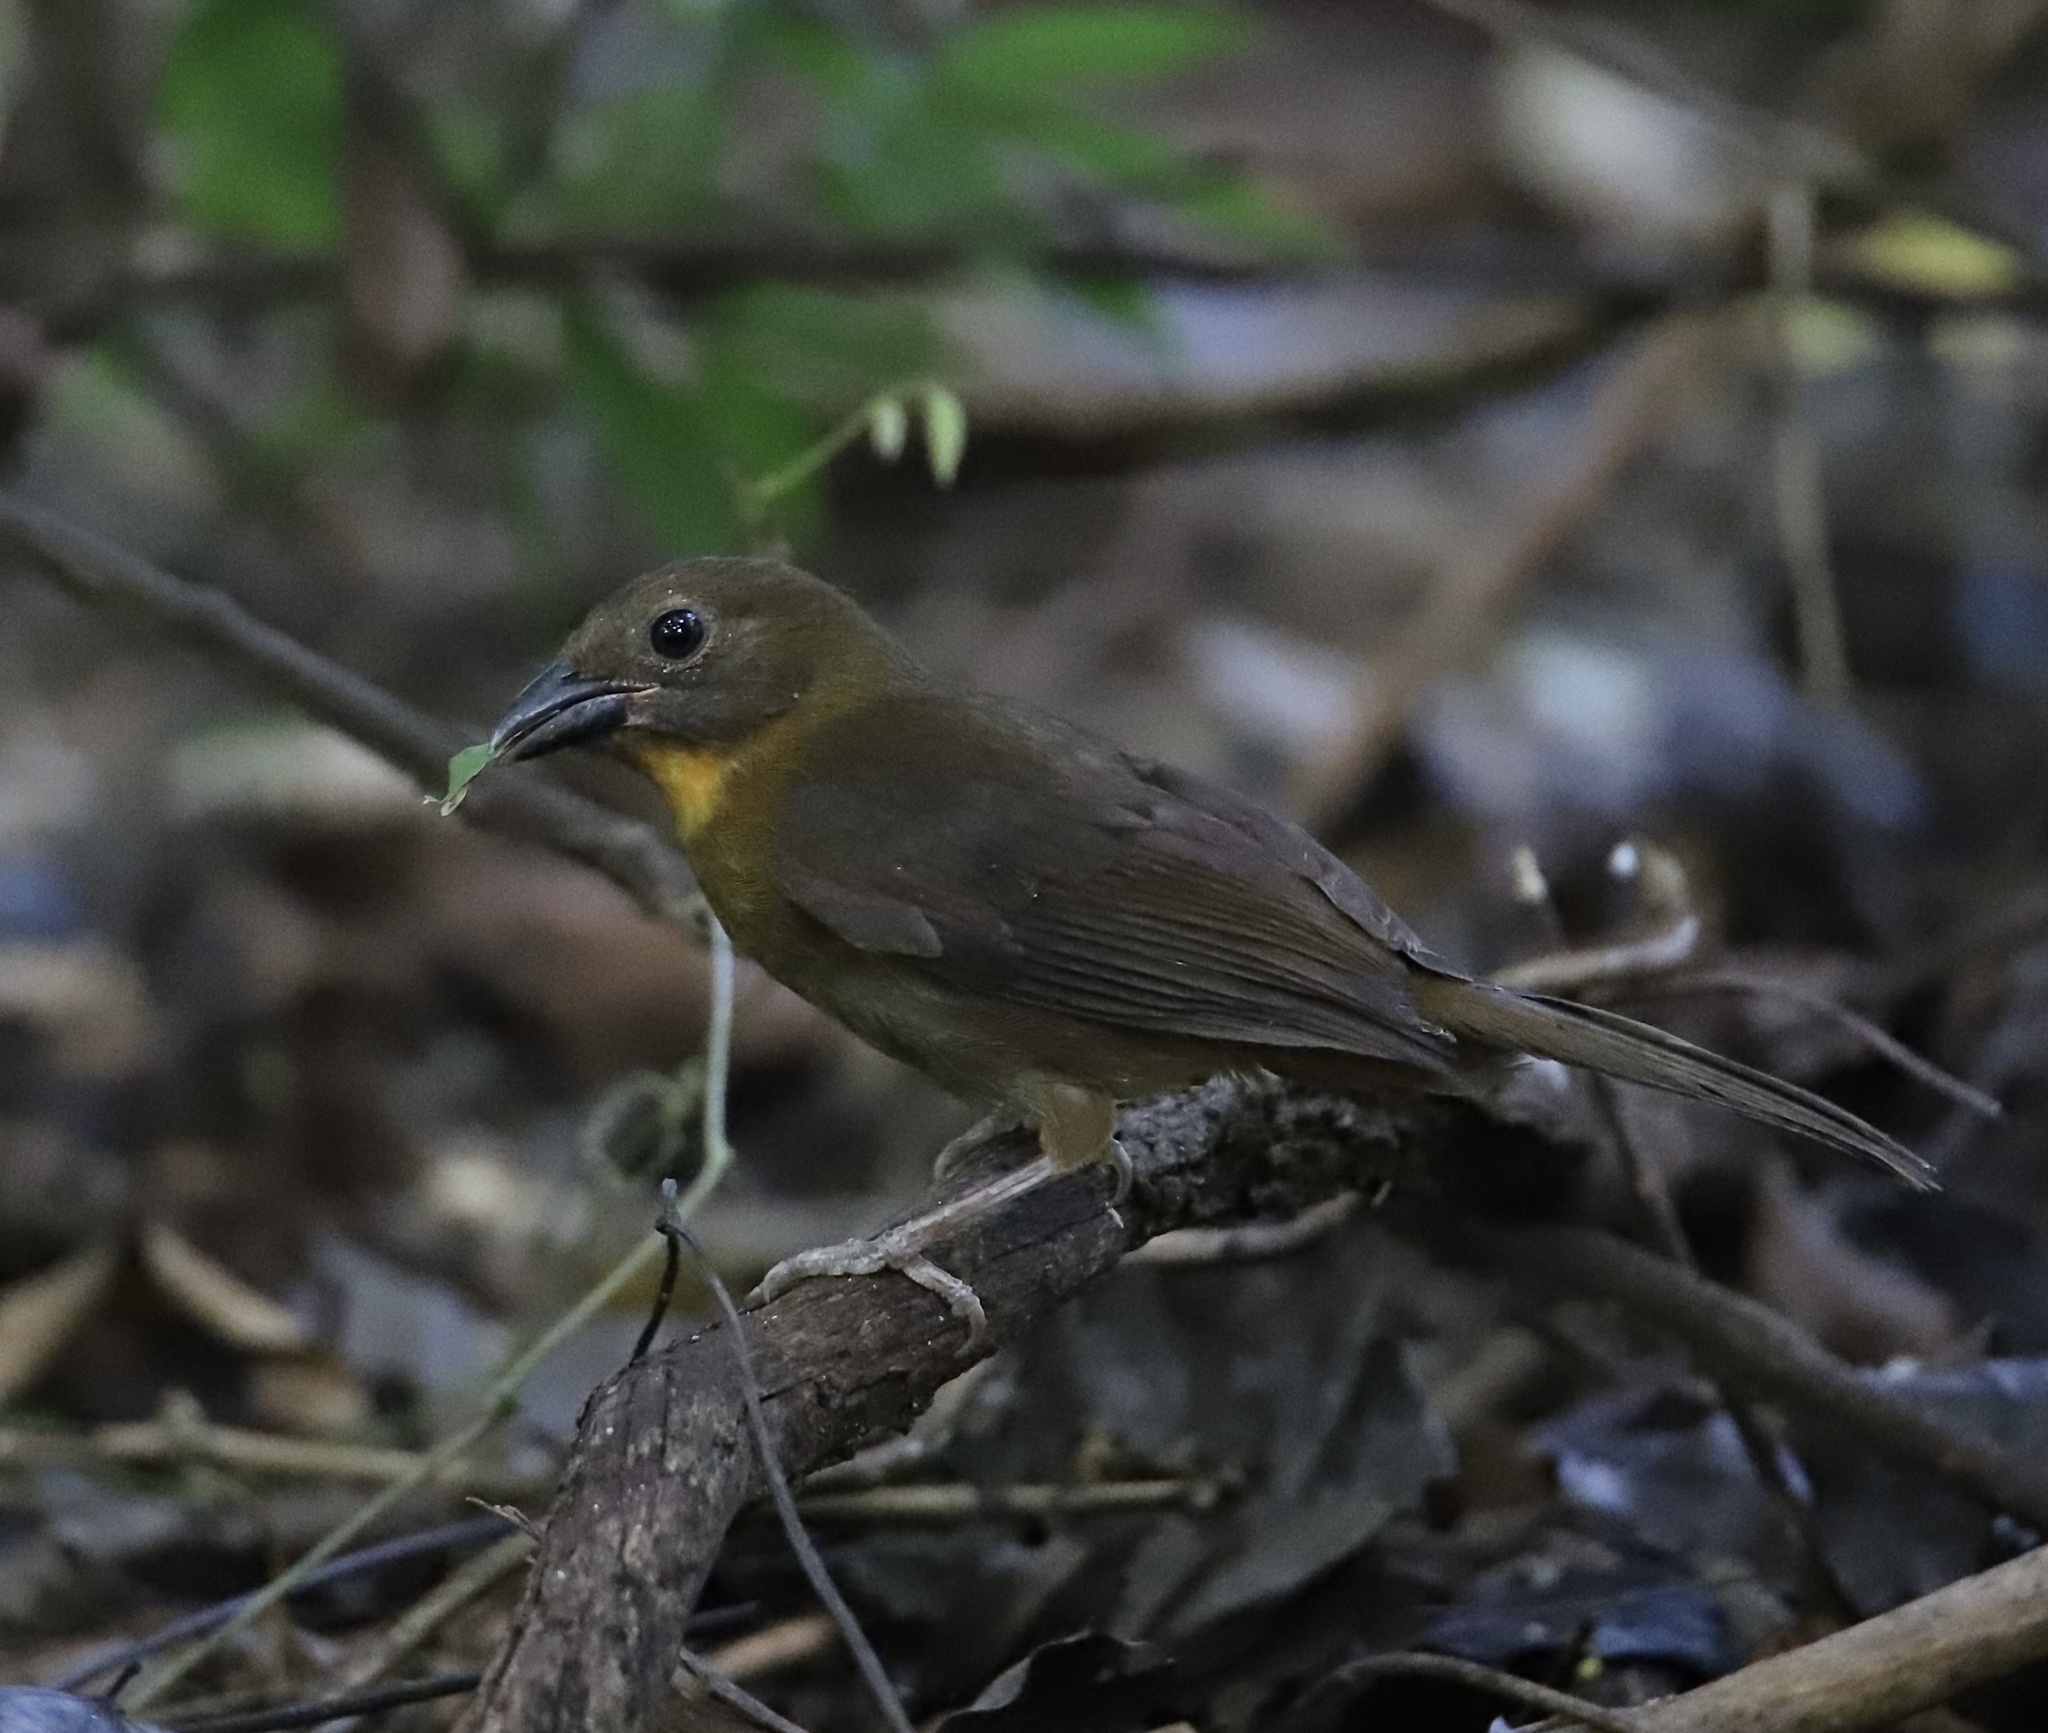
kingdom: Animalia
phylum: Chordata
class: Aves
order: Passeriformes
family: Cardinalidae
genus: Habia
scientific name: Habia fuscicauda
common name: Red-throated ant-tanager
